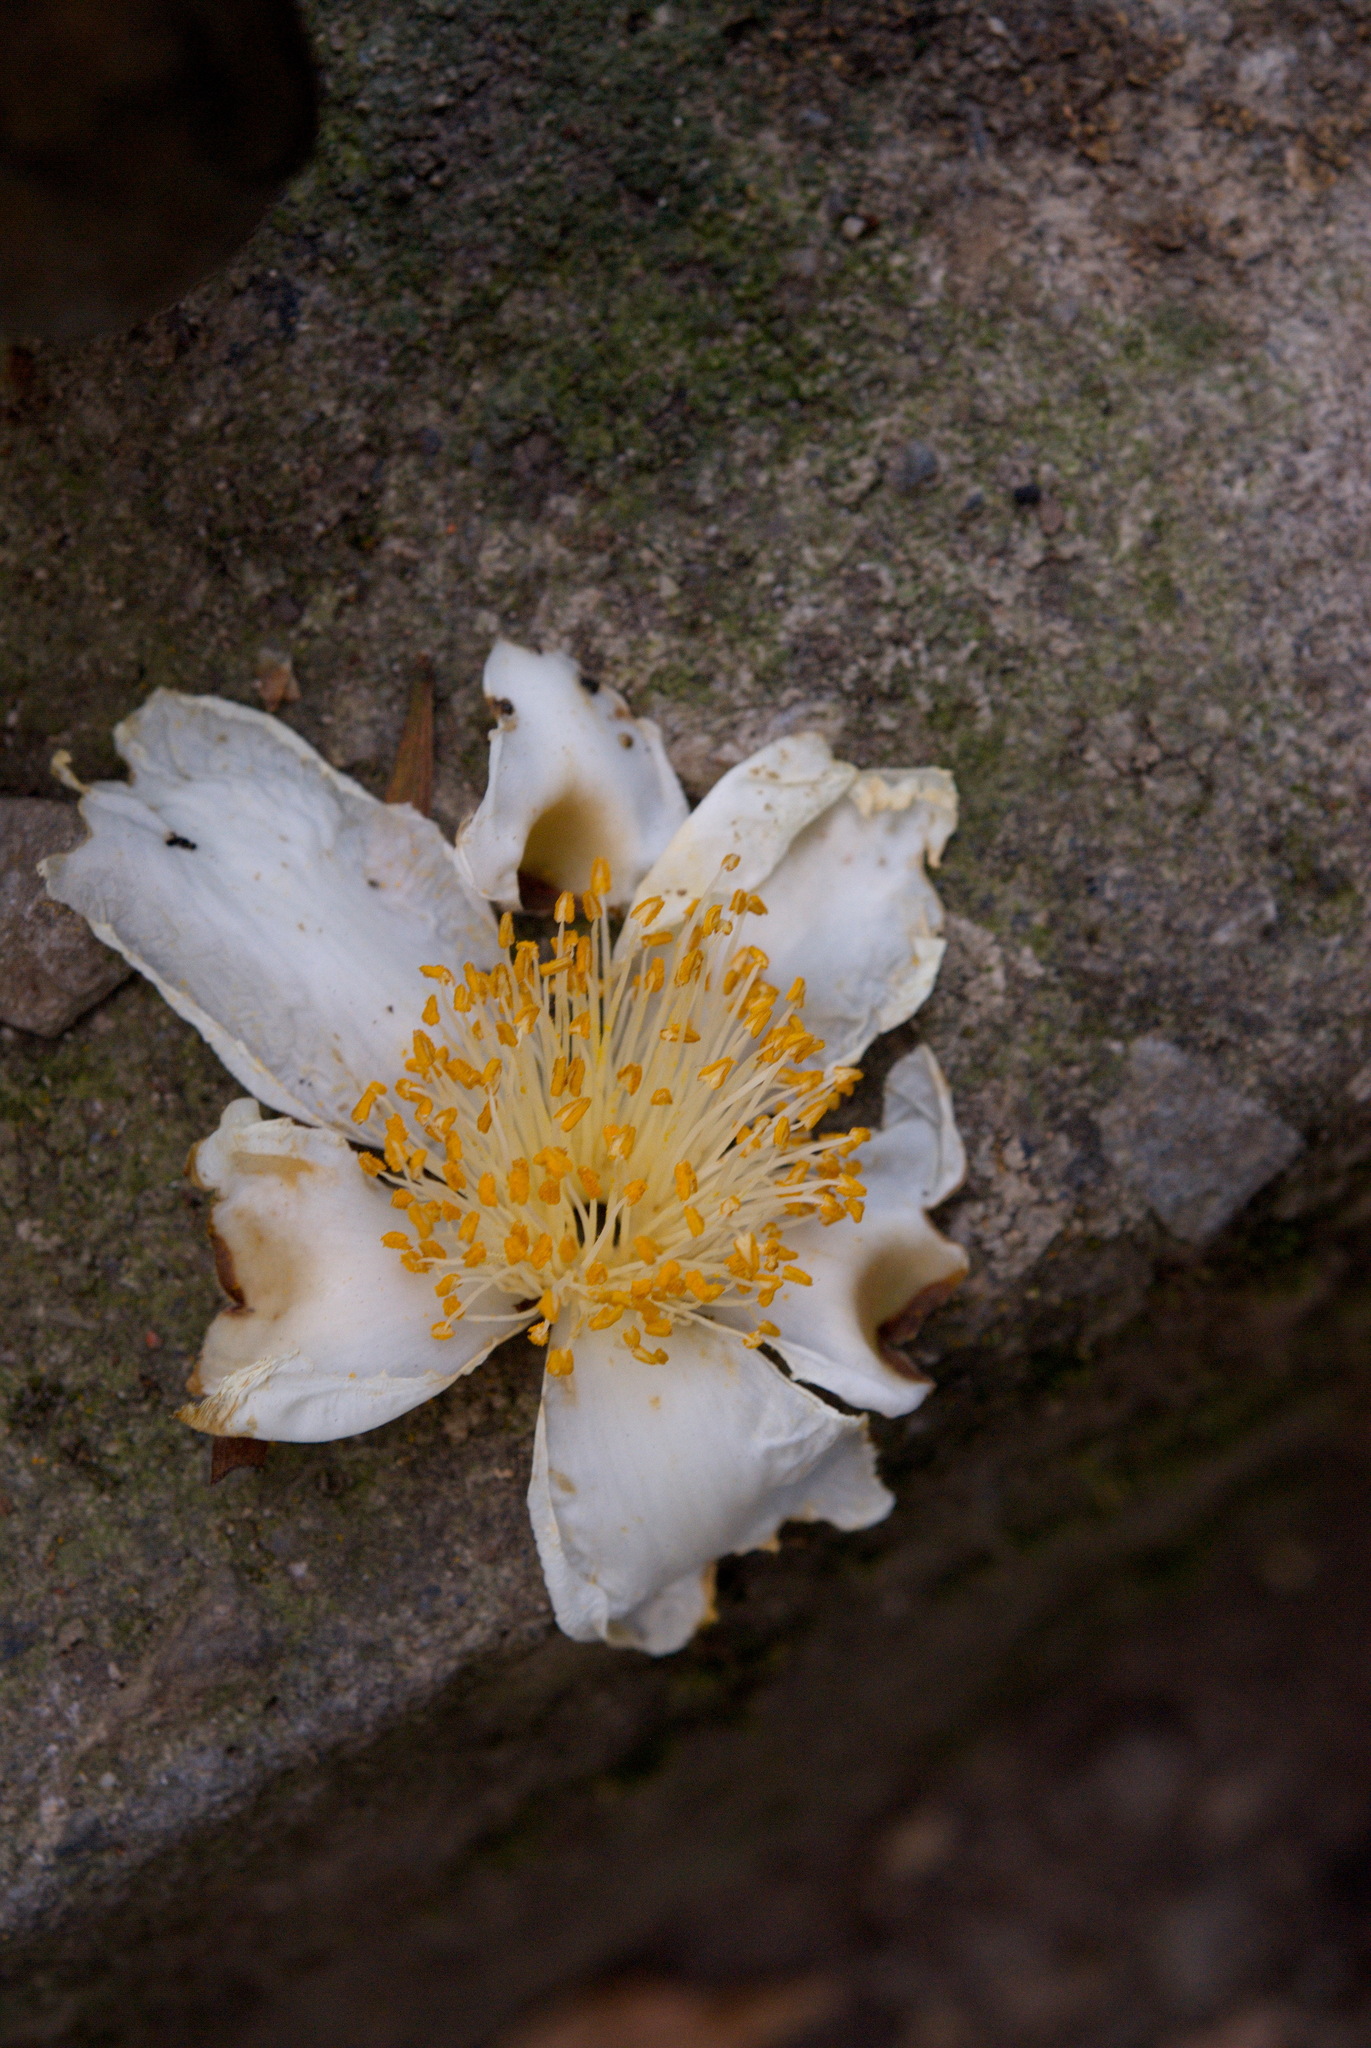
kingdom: Plantae
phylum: Tracheophyta
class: Magnoliopsida
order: Ericales
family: Theaceae
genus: Polyspora
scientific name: Polyspora axillaris
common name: Fried egg tree
